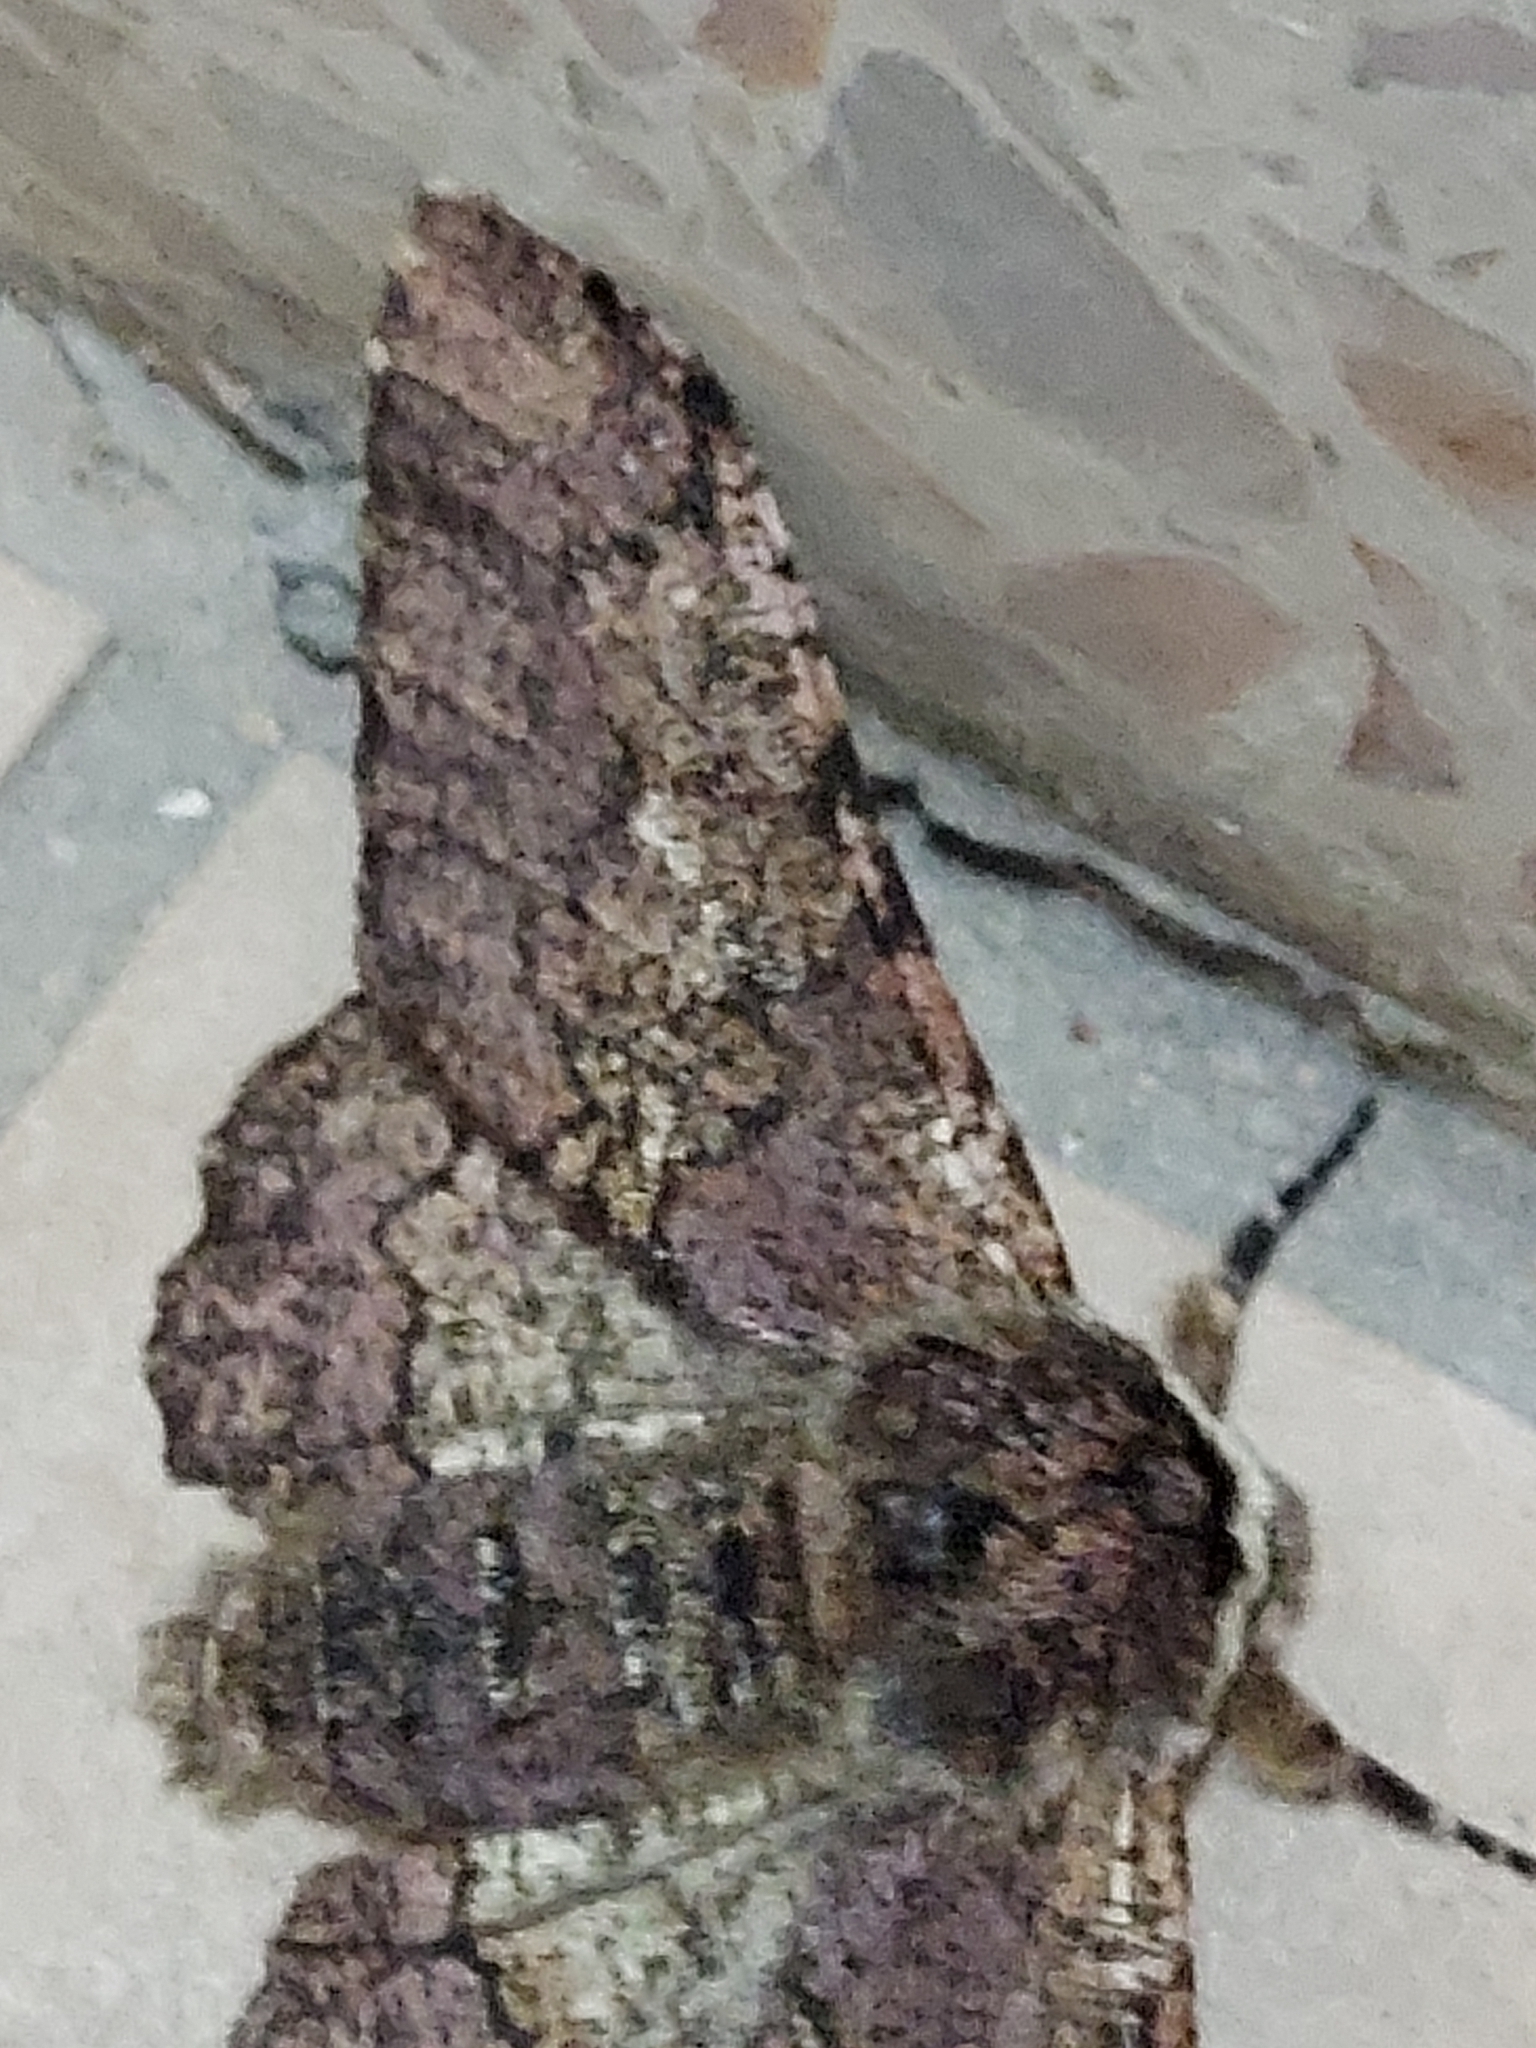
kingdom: Animalia
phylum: Arthropoda
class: Insecta
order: Lepidoptera
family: Geometridae
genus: Biston
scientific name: Biston robustum
